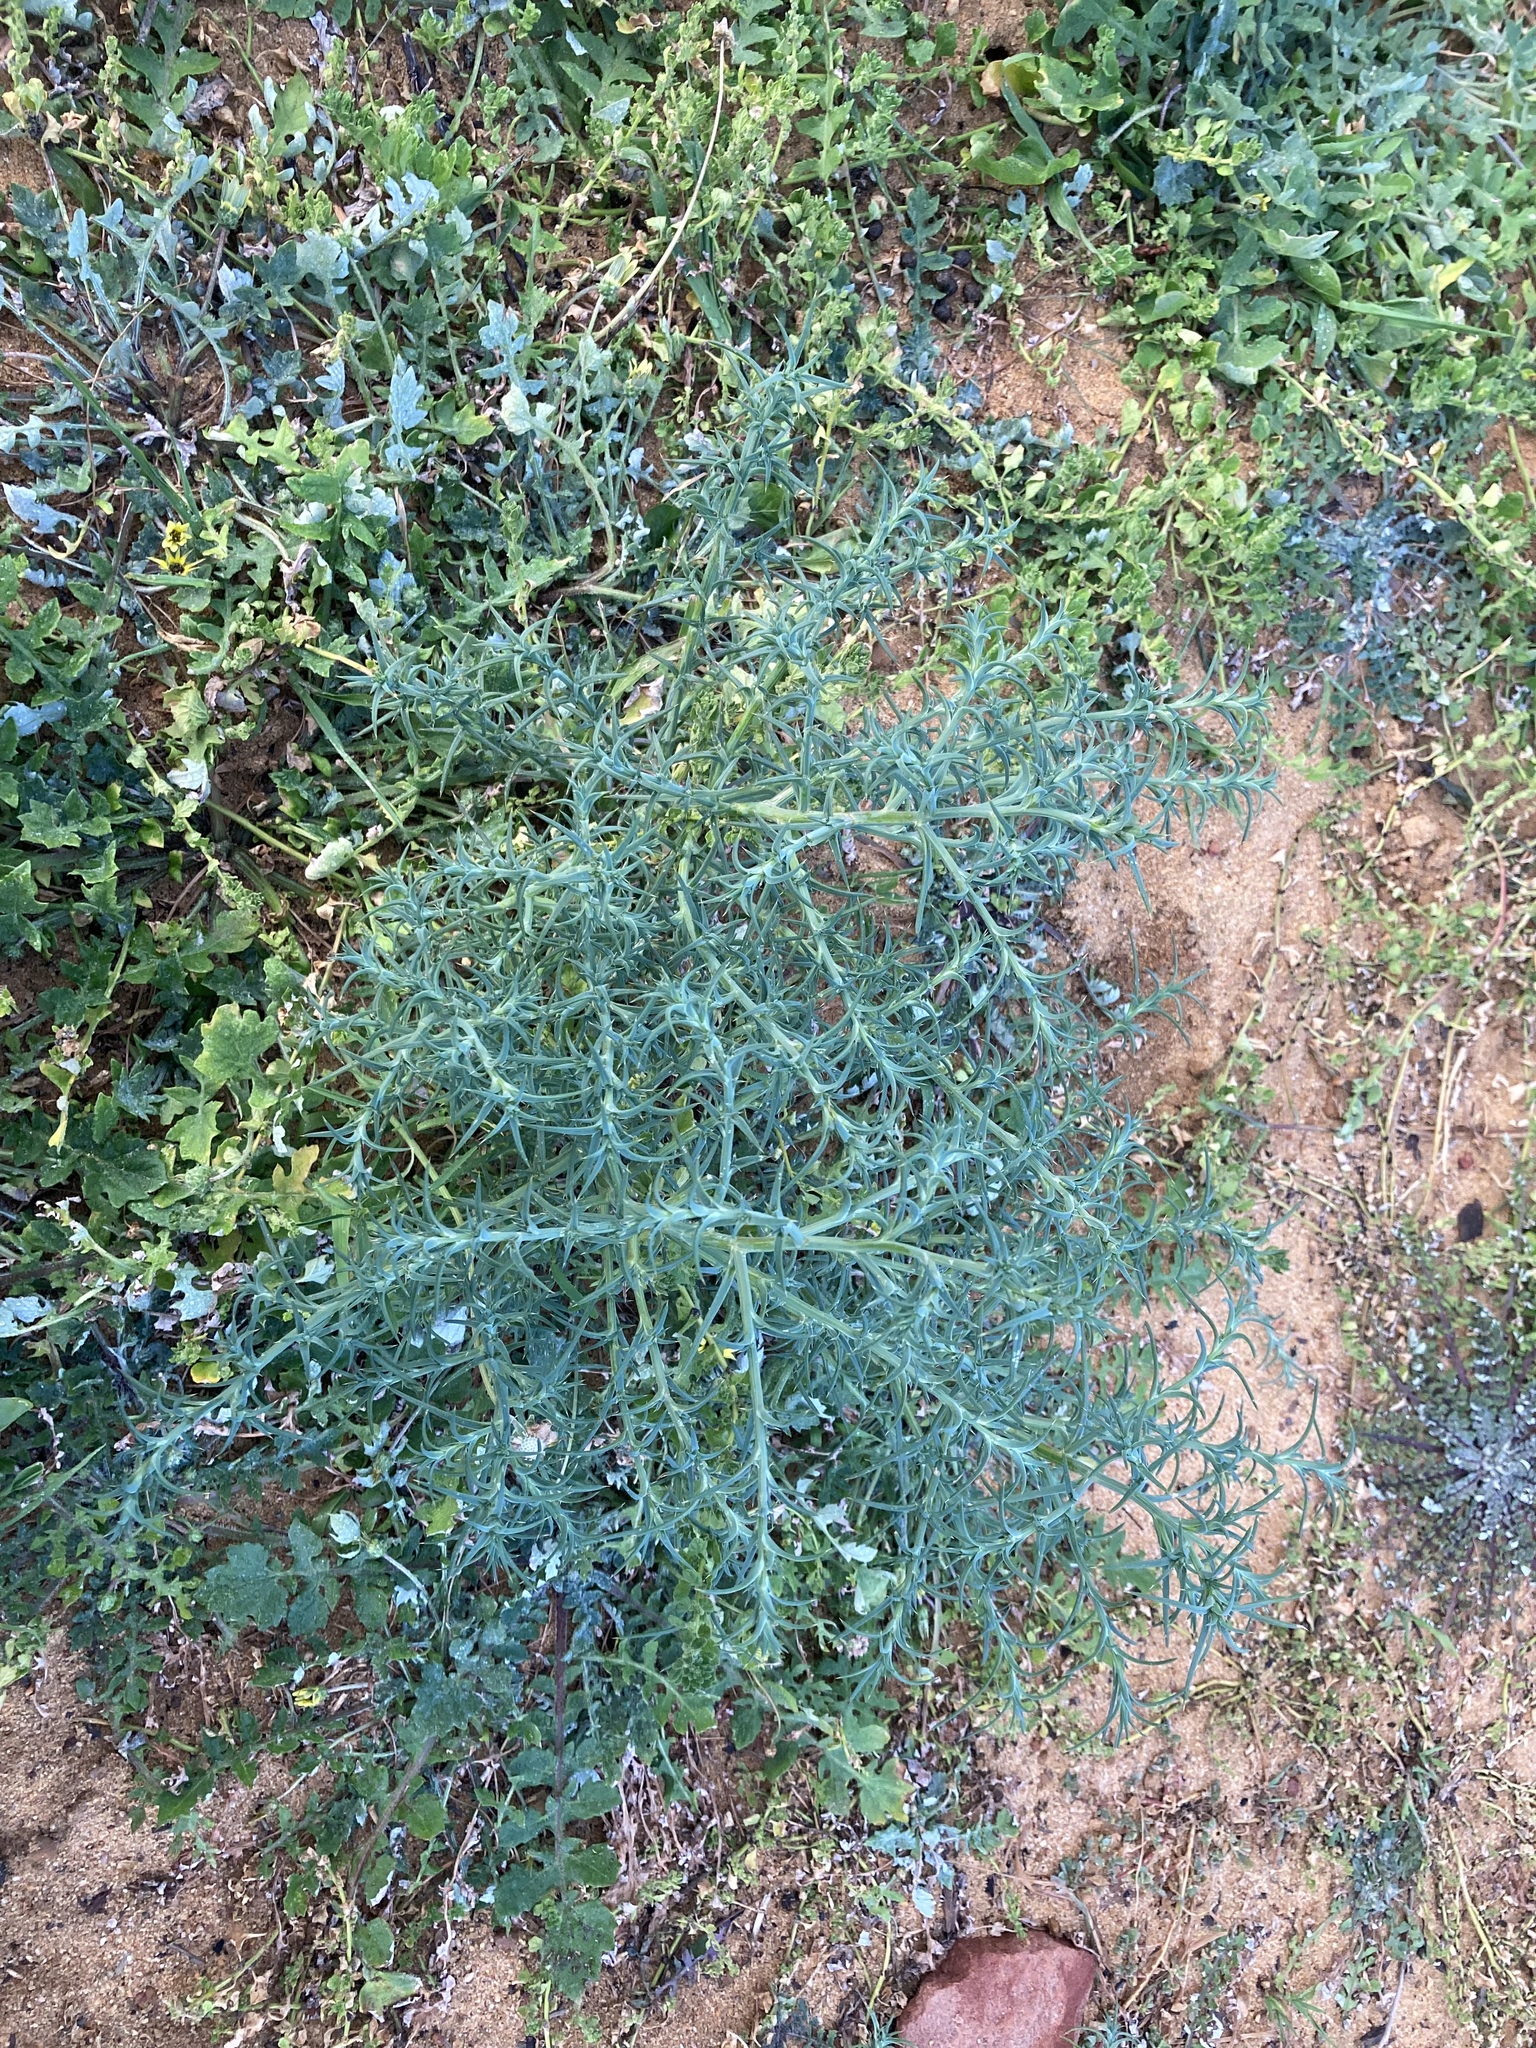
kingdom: Plantae
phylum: Tracheophyta
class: Magnoliopsida
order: Caryophyllales
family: Amaranthaceae
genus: Salsola
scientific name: Salsola australis
